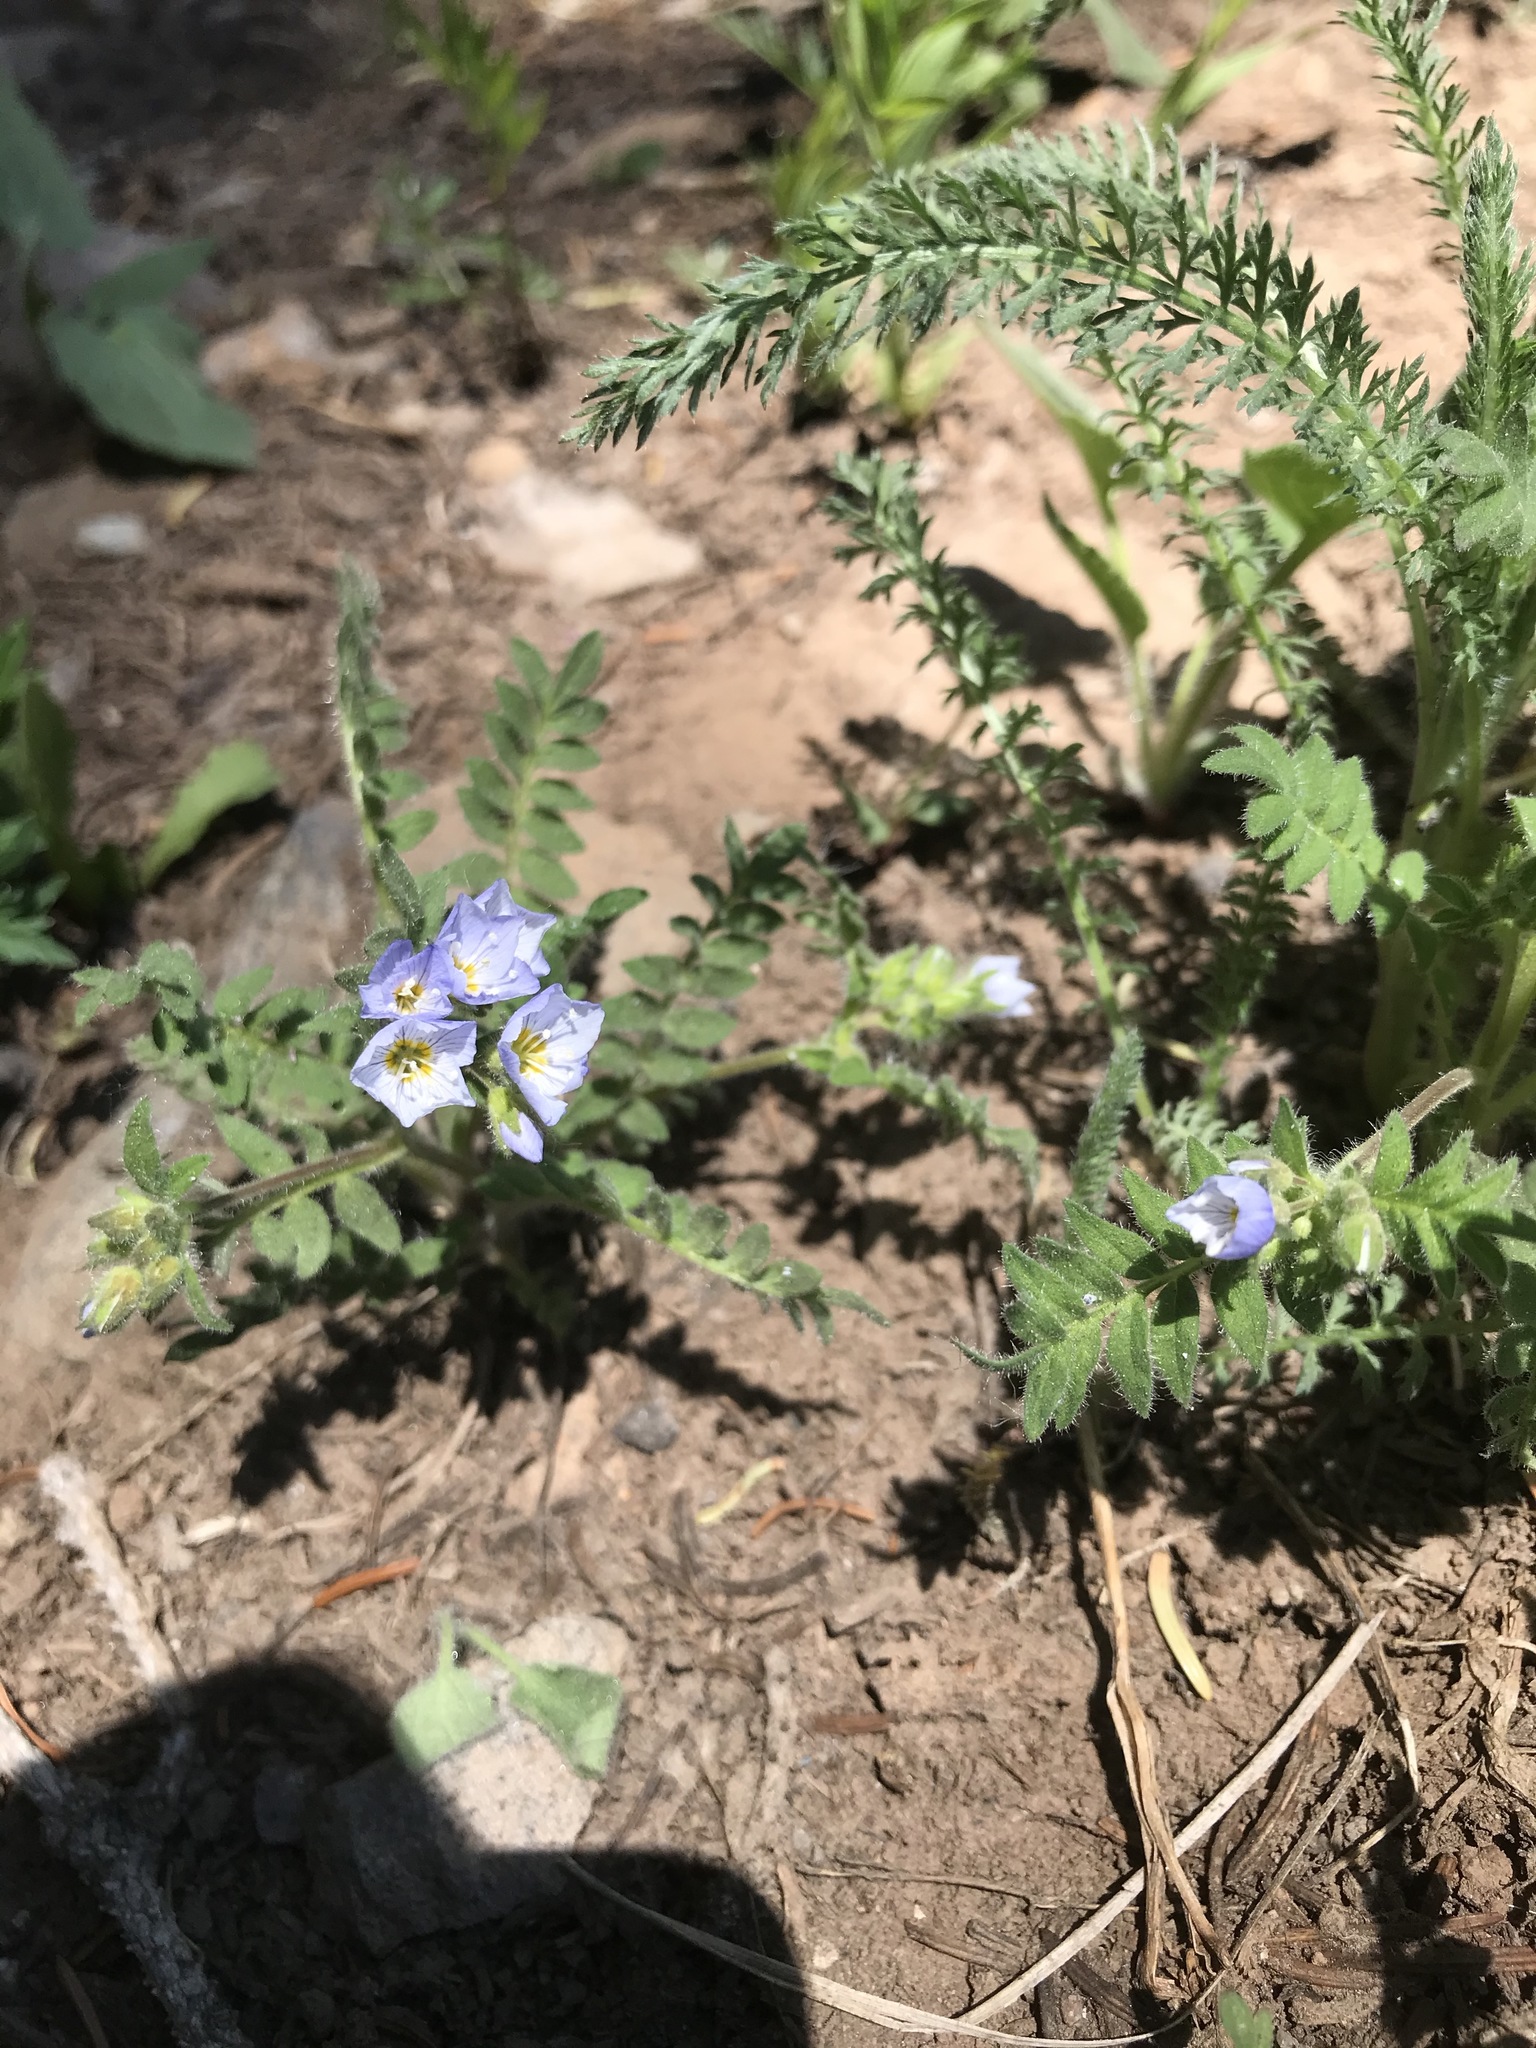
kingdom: Plantae
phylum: Tracheophyta
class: Magnoliopsida
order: Ericales
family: Polemoniaceae
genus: Polemonium
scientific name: Polemonium pulcherrimum
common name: Short jacob's-ladder
